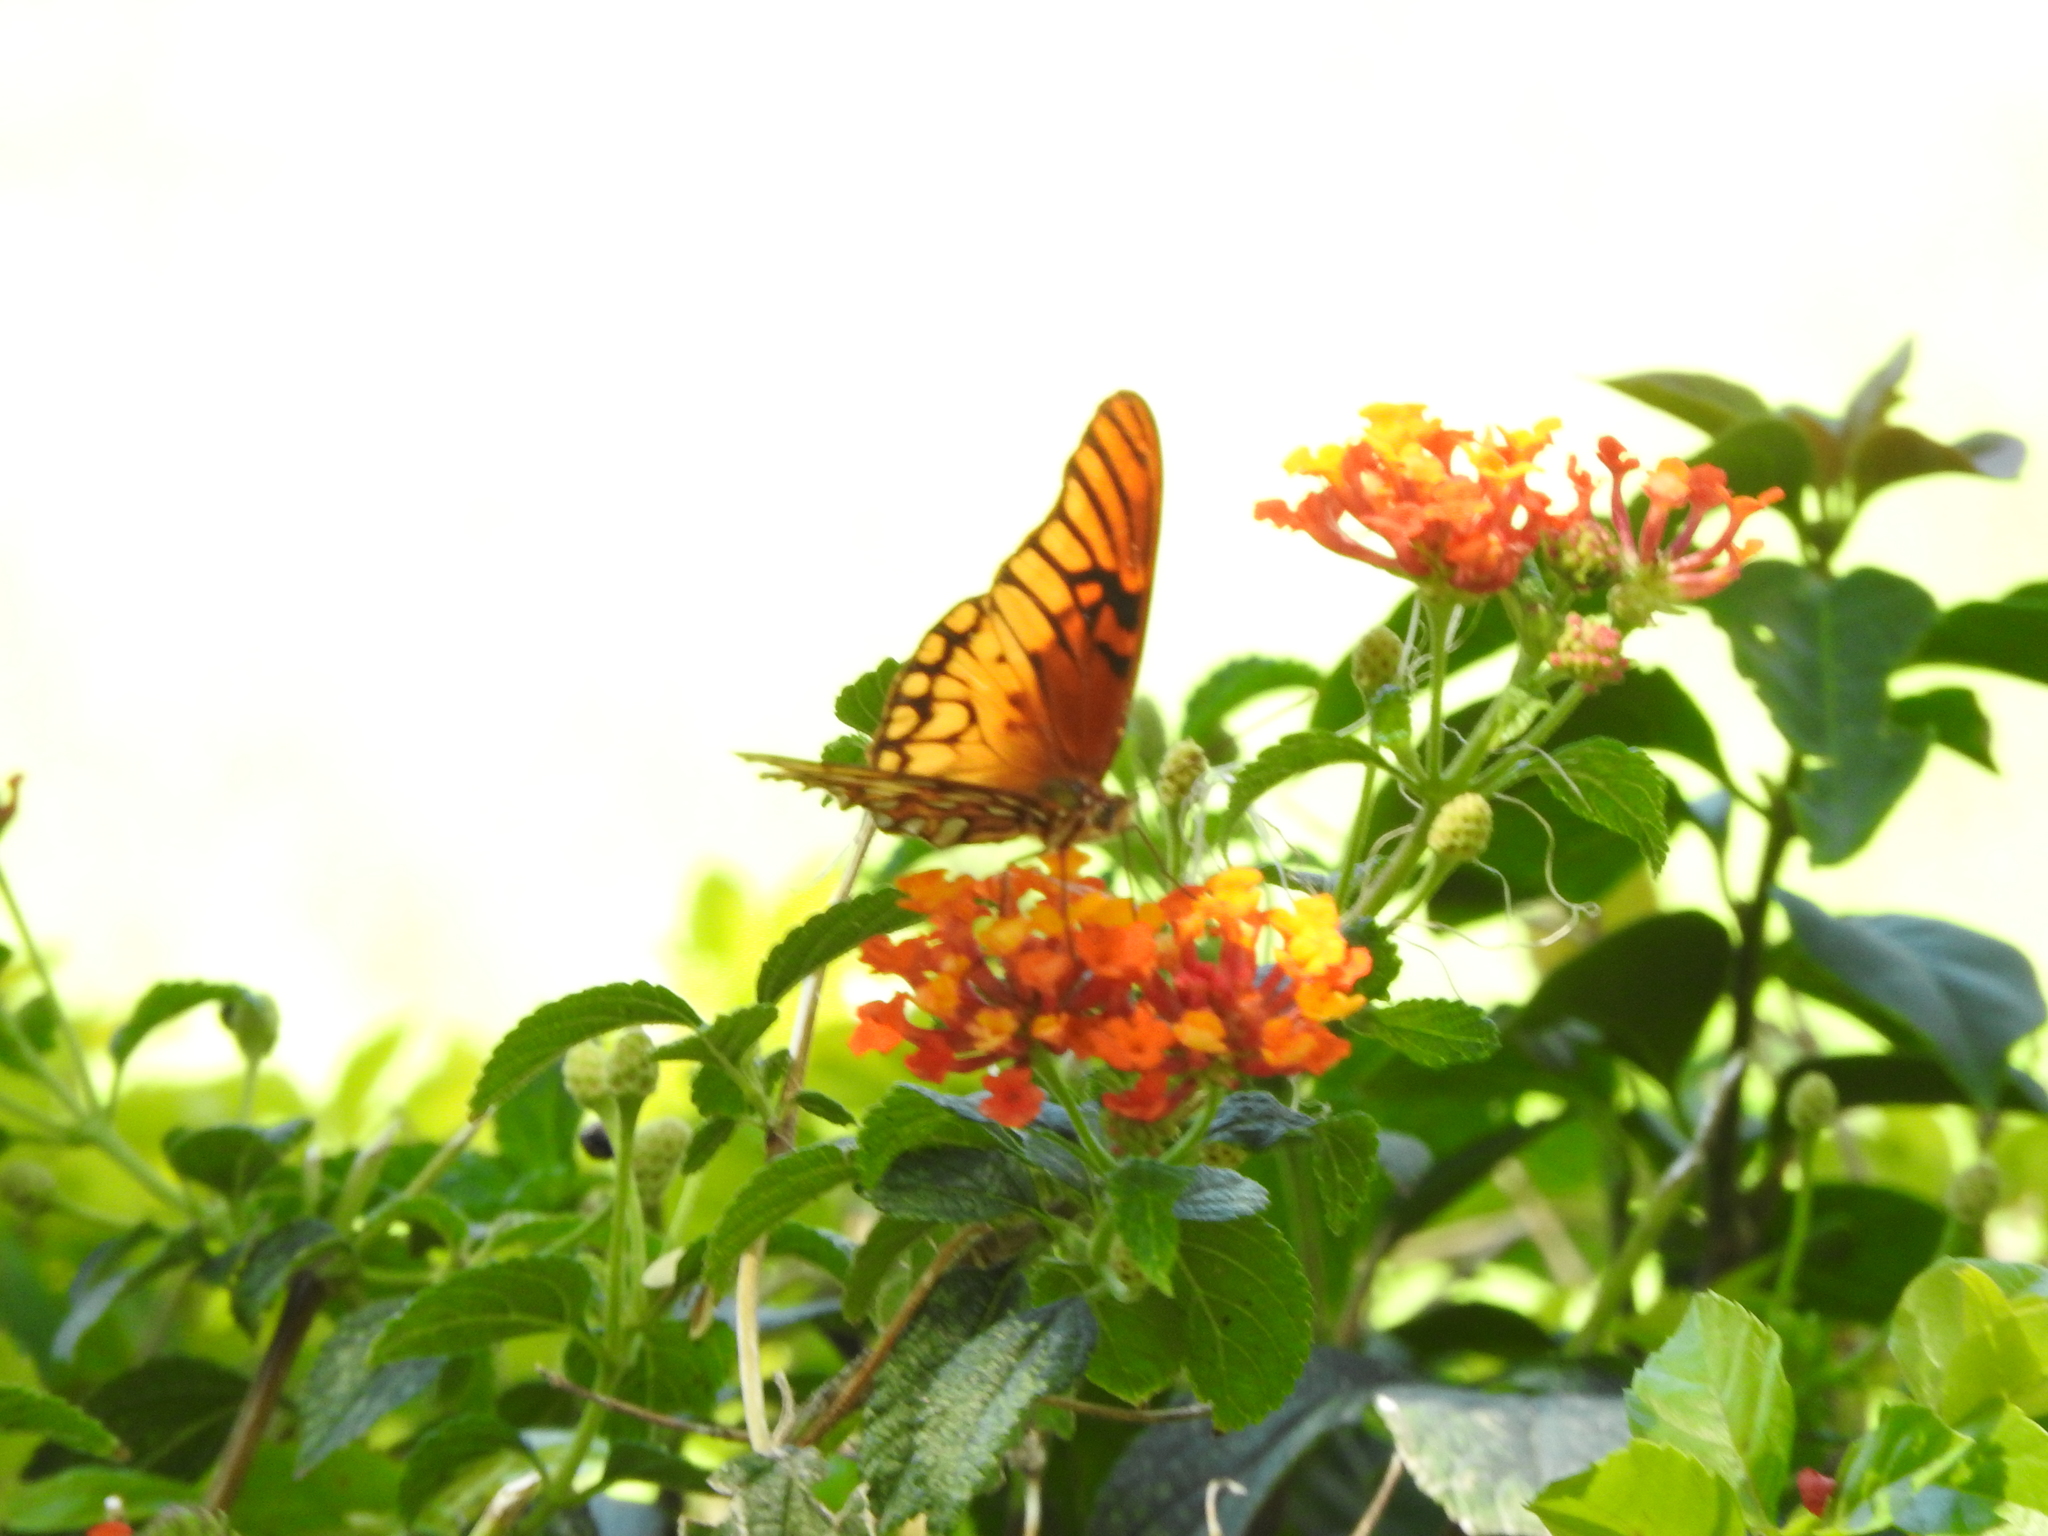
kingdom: Animalia
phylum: Arthropoda
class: Insecta
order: Lepidoptera
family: Nymphalidae
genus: Dione
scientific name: Dione moneta
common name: Mexican silverspot
